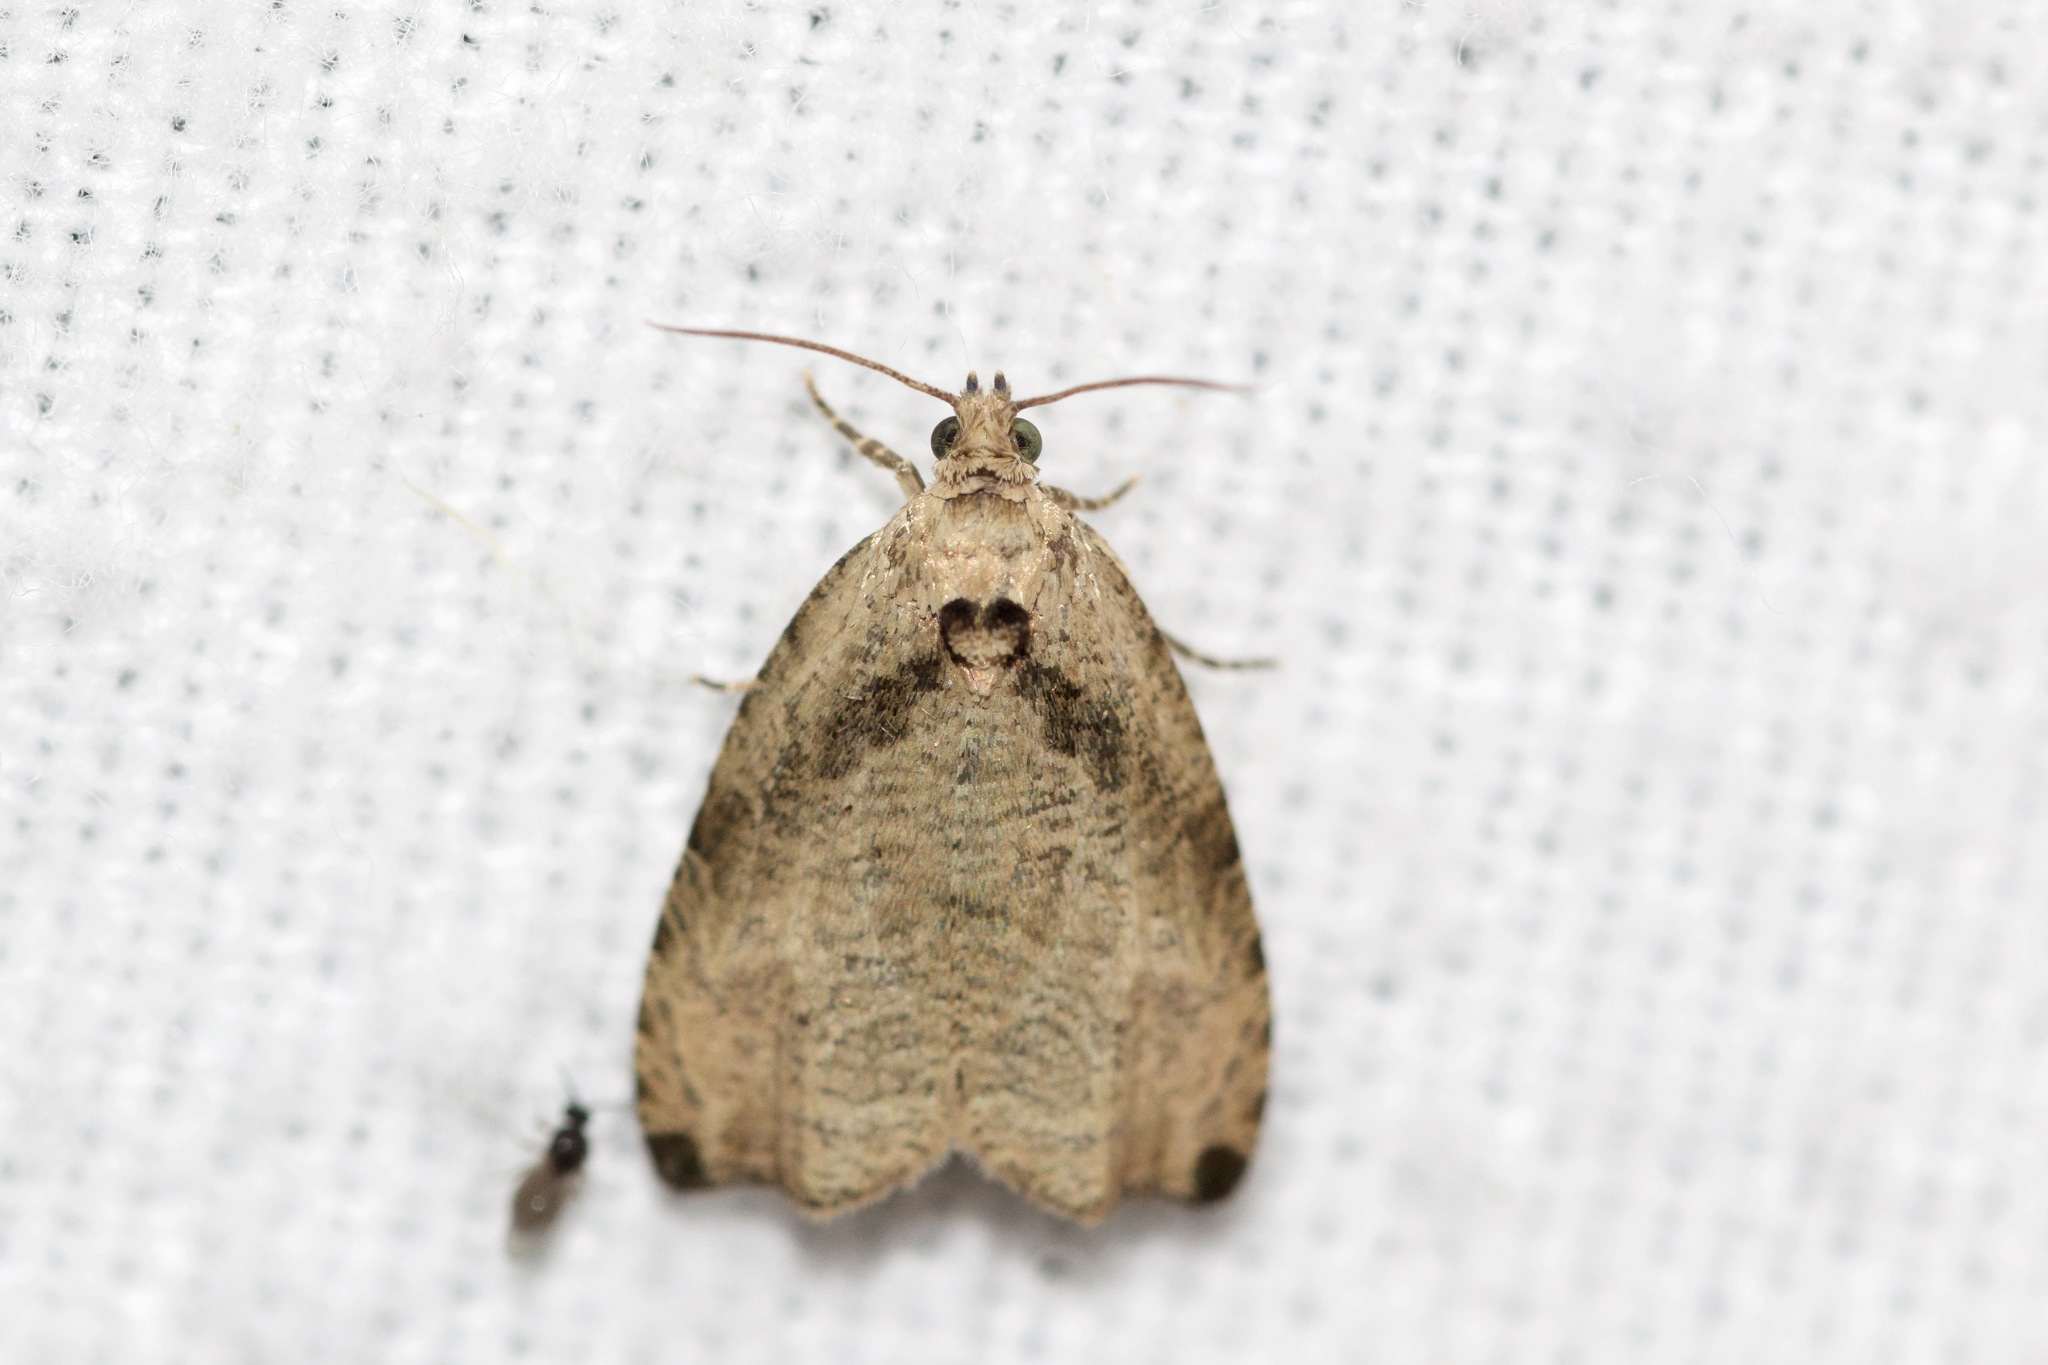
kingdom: Animalia
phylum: Arthropoda
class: Insecta
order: Lepidoptera
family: Tortricidae
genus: Olethreutes
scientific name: Olethreutes exoletum
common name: Wretched olethreutes moth
